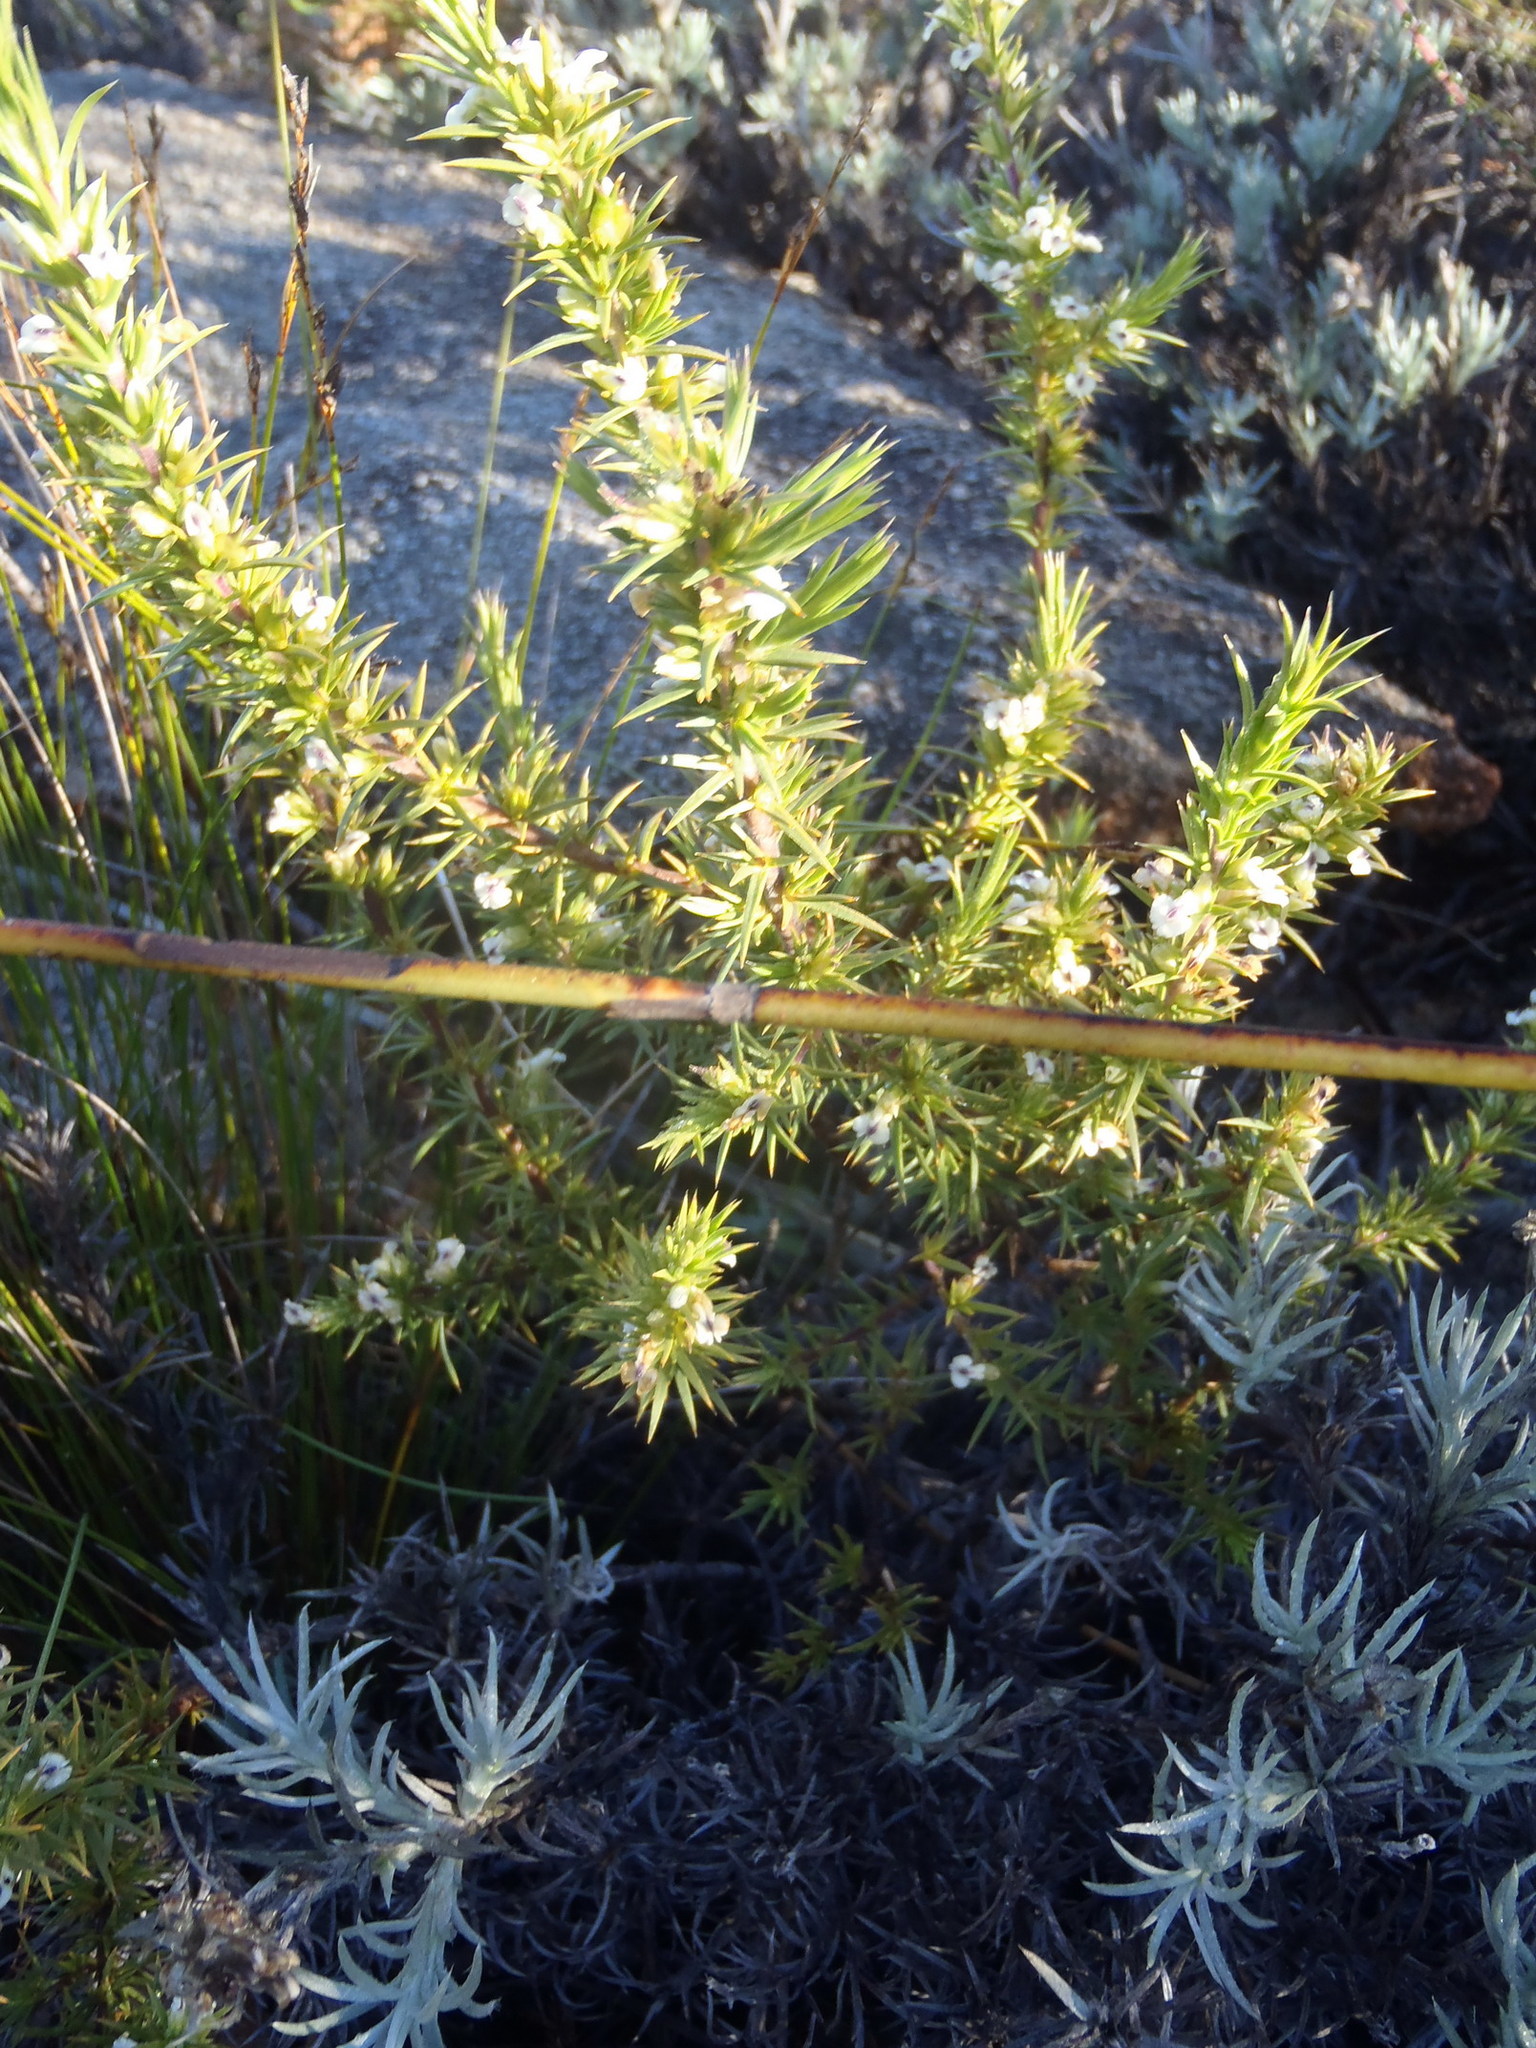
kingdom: Plantae
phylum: Tracheophyta
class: Magnoliopsida
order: Fabales
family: Polygalaceae
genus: Muraltia
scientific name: Muraltia ericifolia
